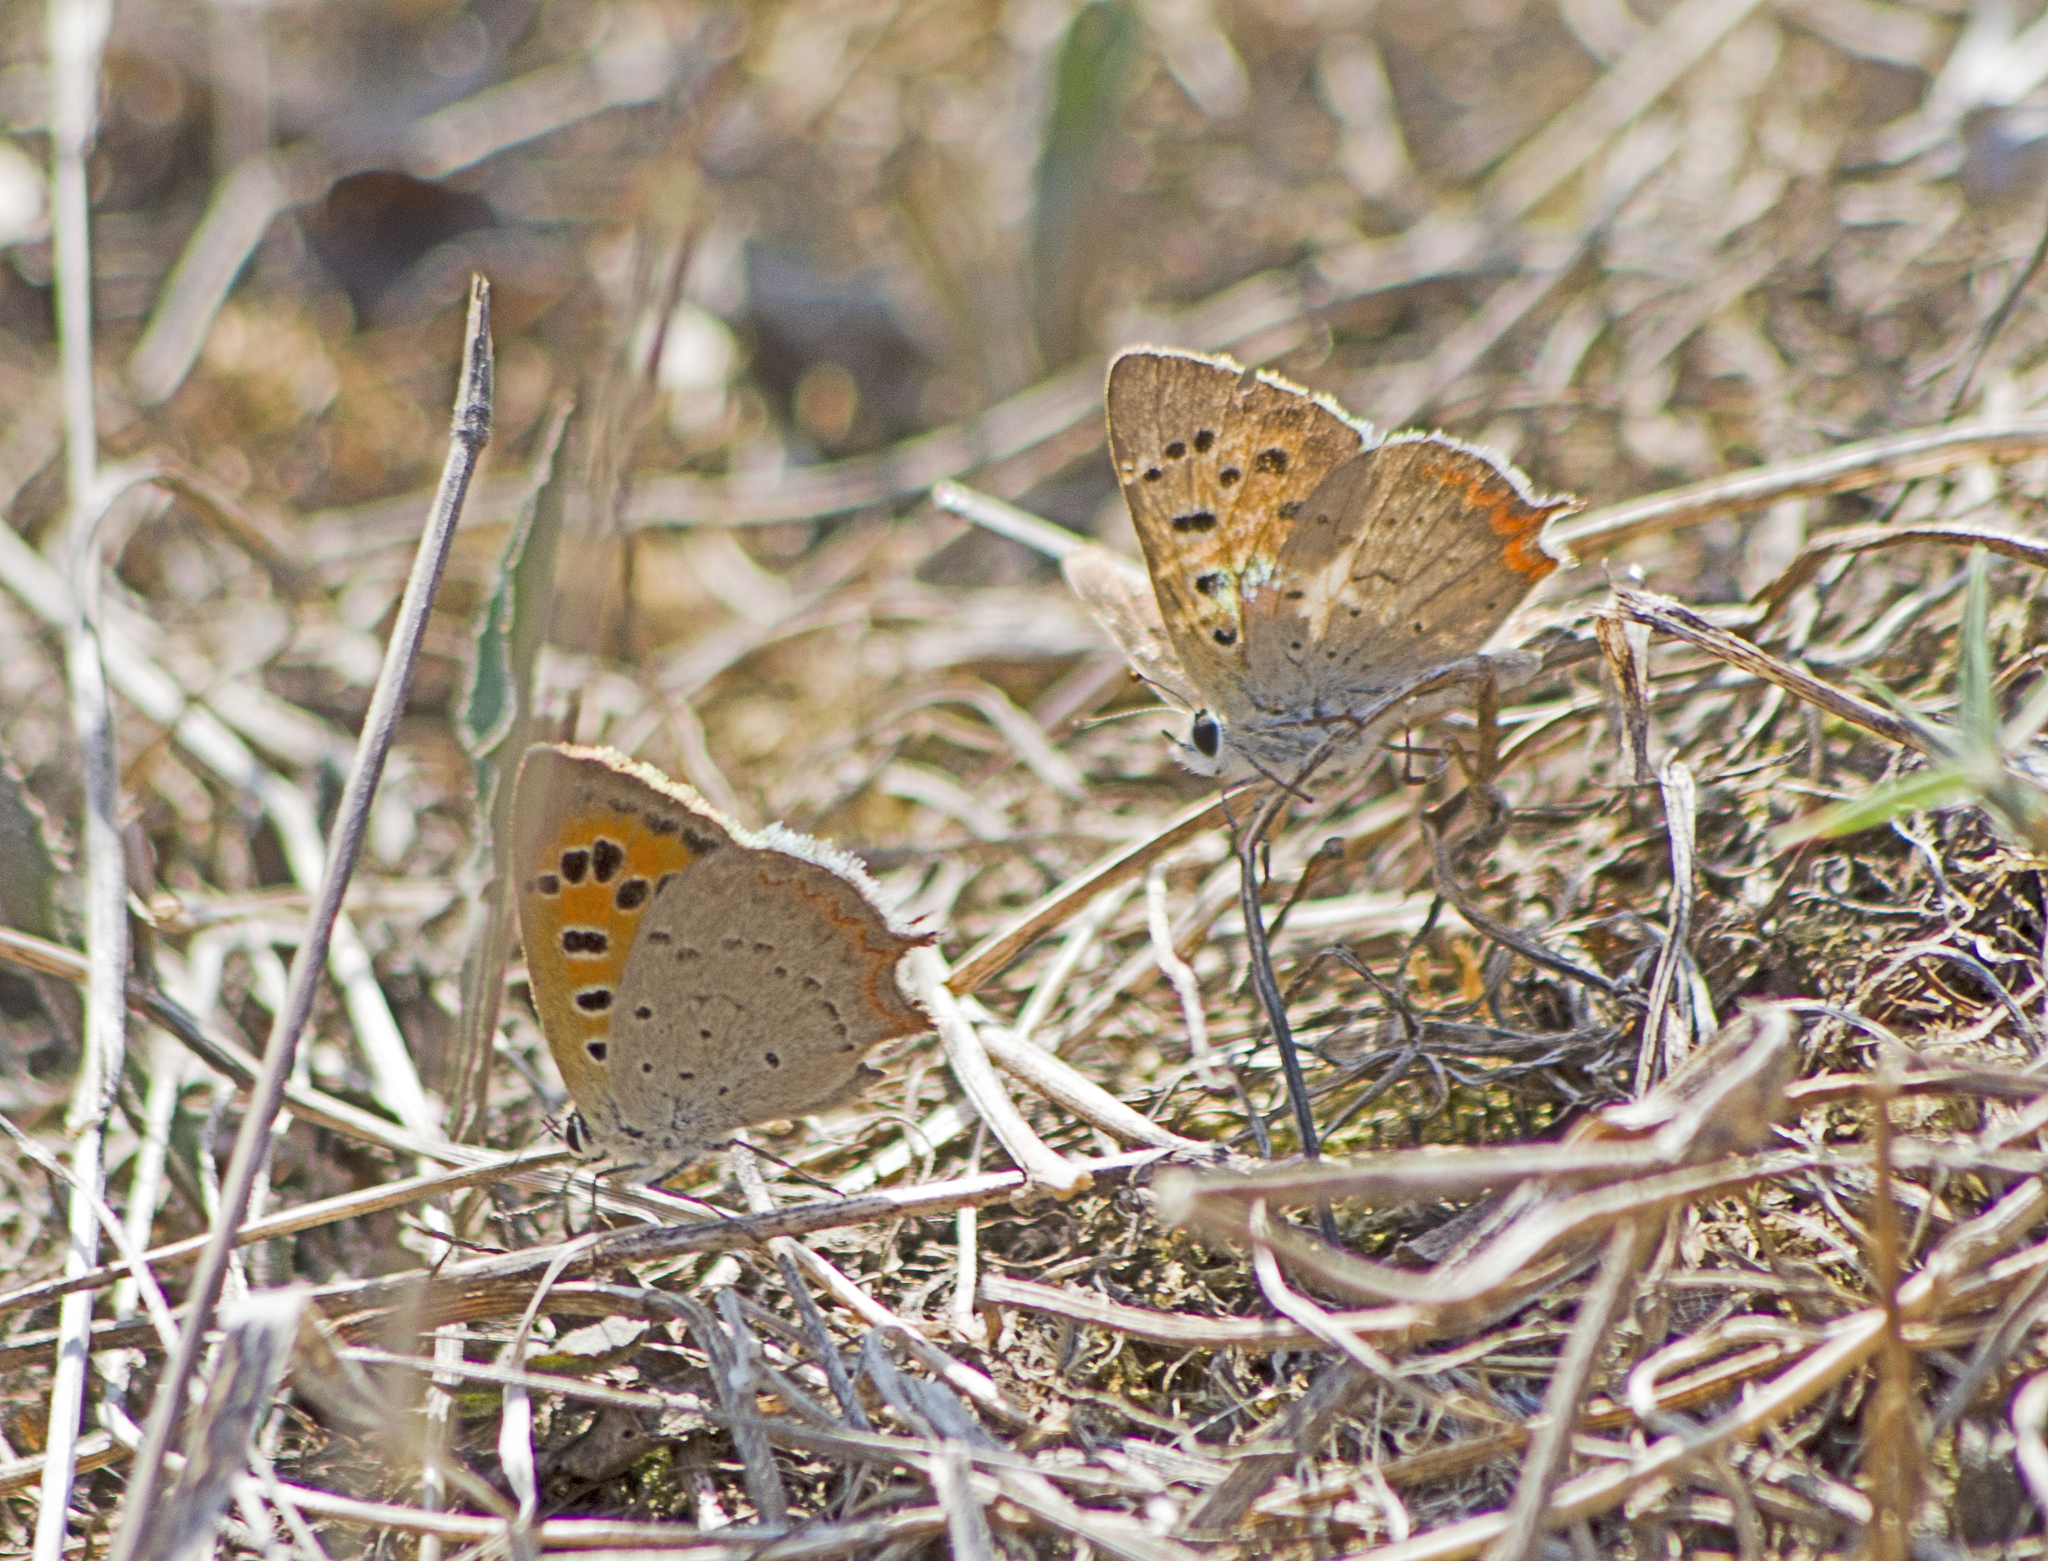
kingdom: Animalia
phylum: Arthropoda
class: Insecta
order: Lepidoptera
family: Lycaenidae
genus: Lycaena
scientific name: Lycaena phlaeas
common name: Small copper
